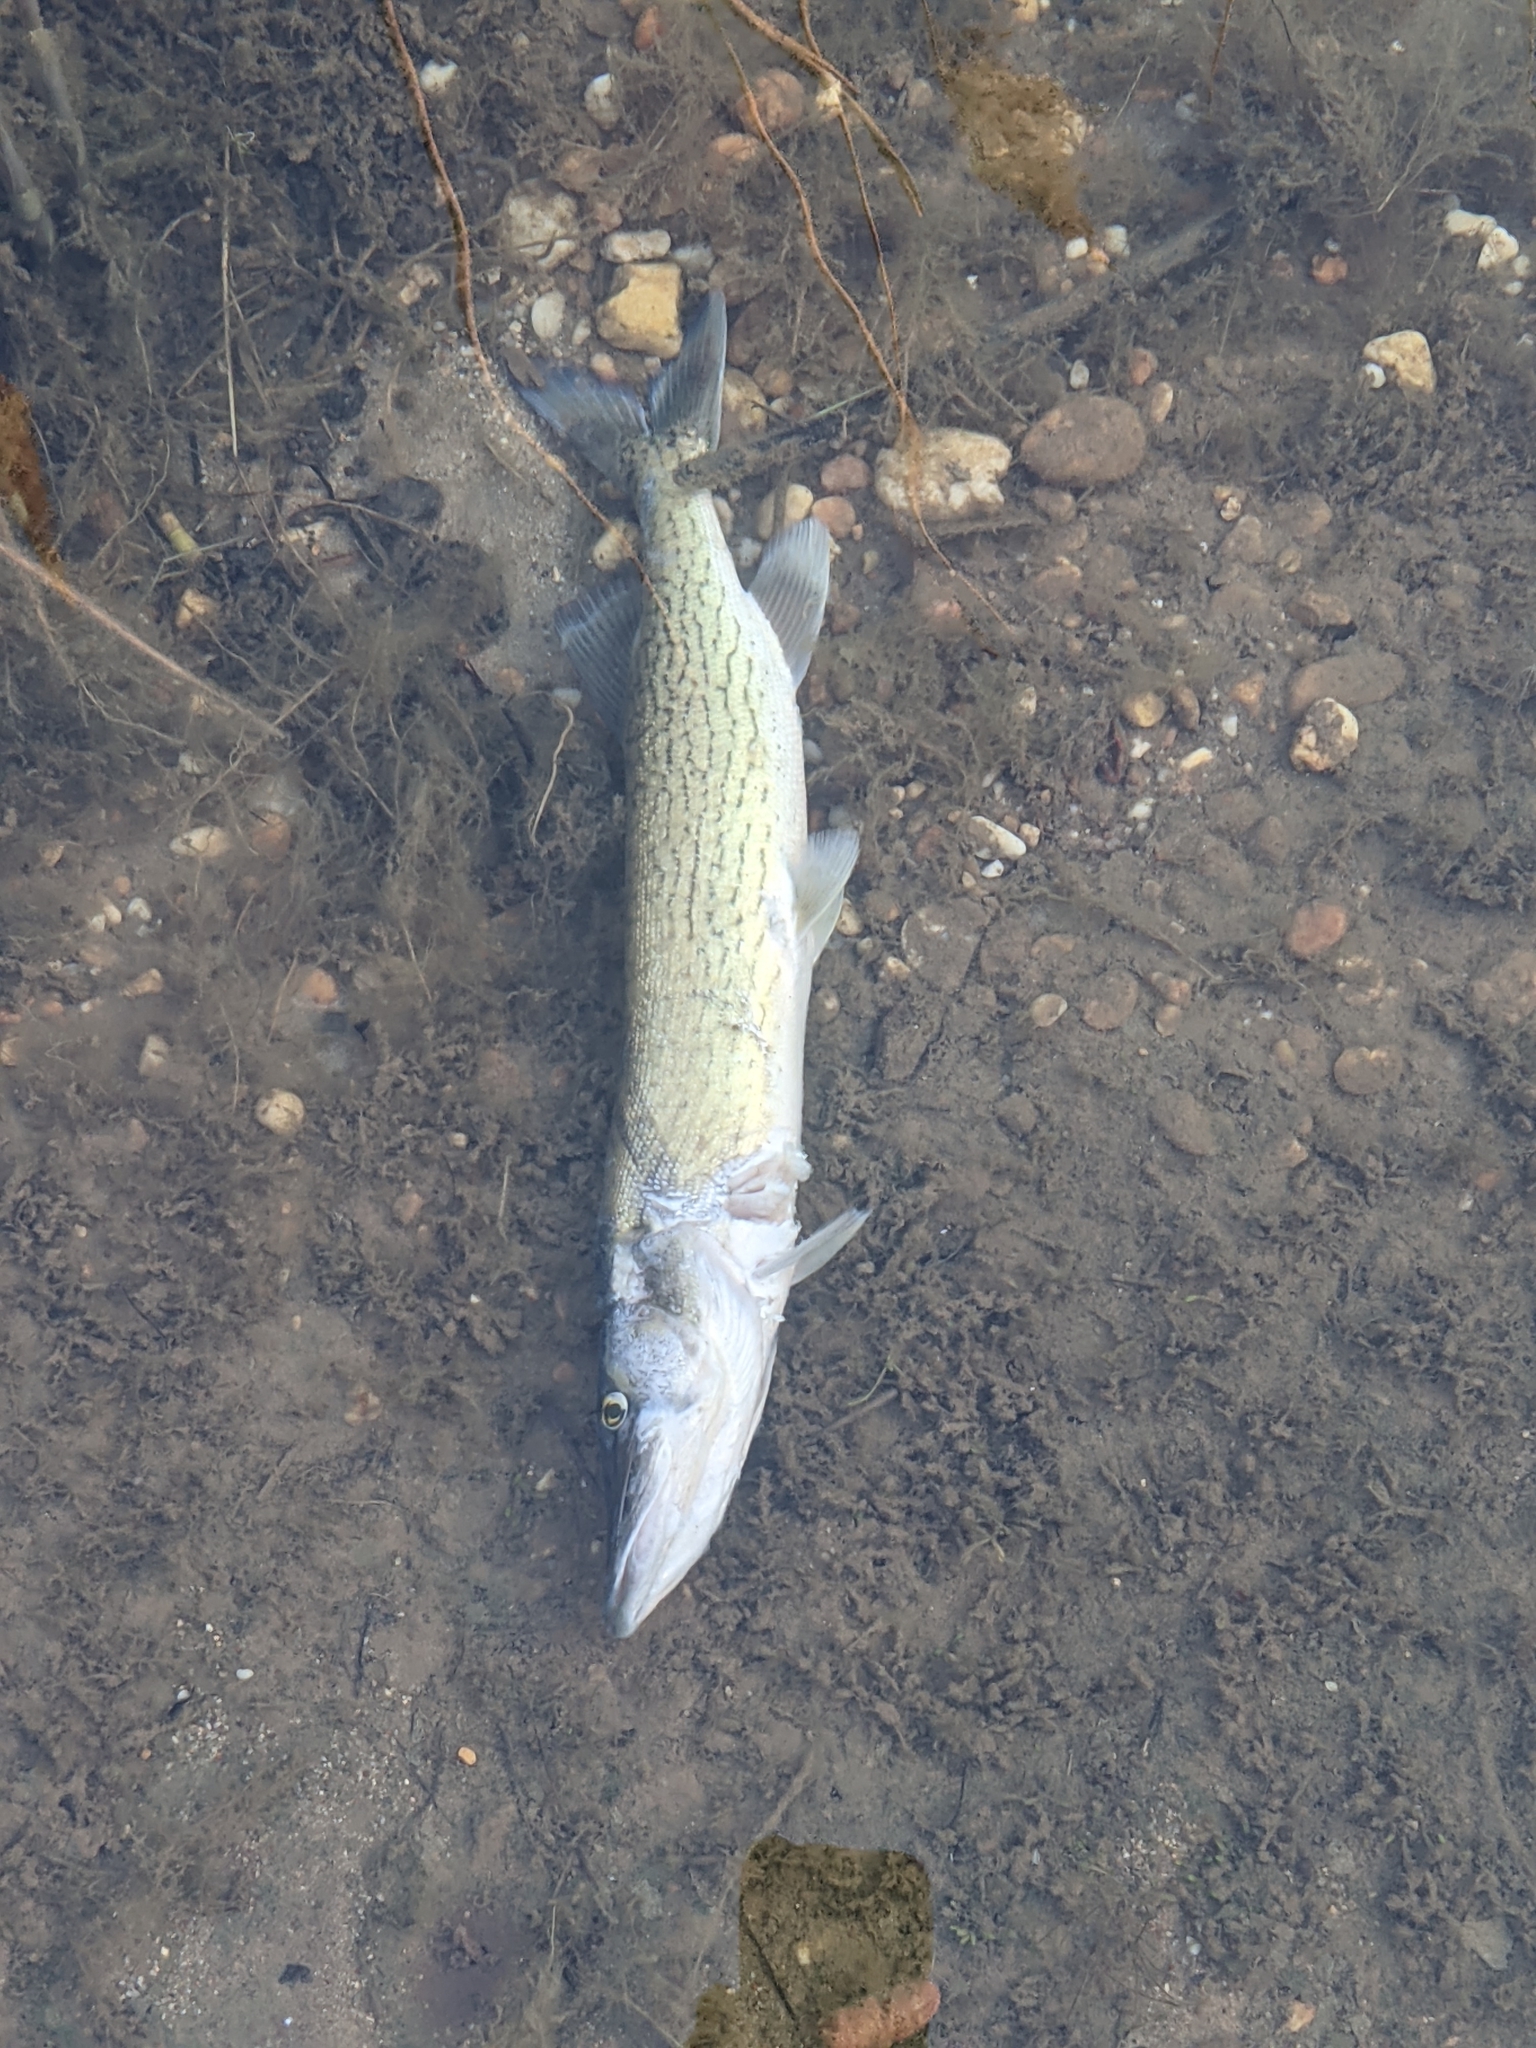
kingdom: Animalia
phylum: Chordata
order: Esociformes
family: Esocidae
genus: Esox
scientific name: Esox niger
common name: Chain pickerel
